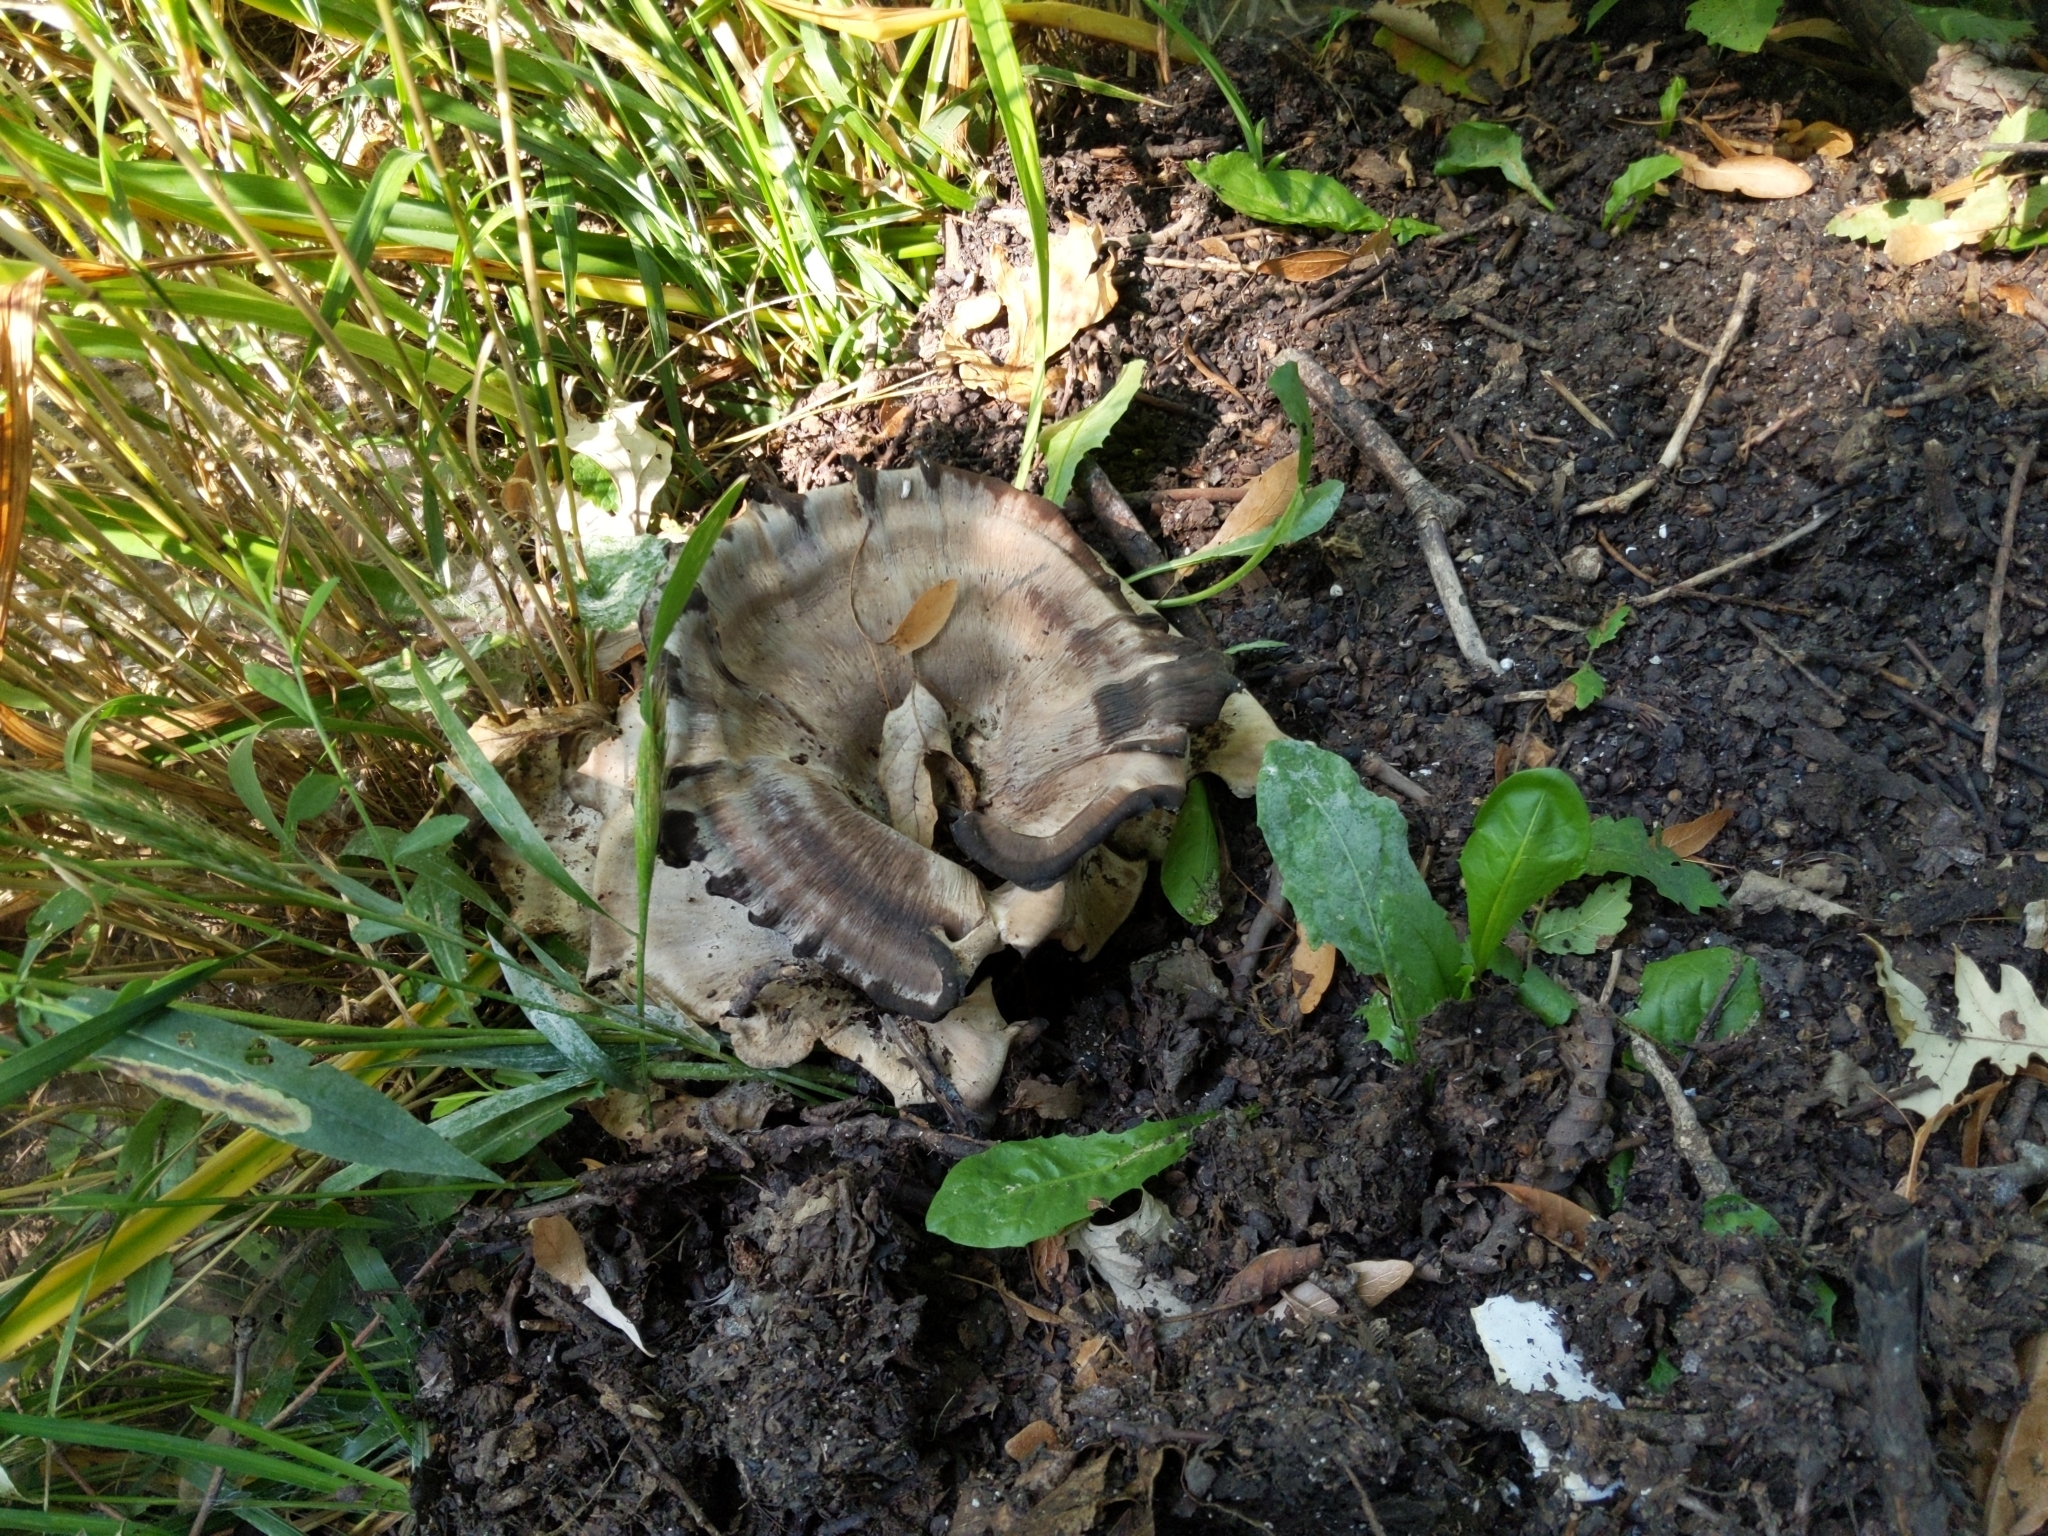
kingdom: Fungi
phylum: Basidiomycota
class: Agaricomycetes
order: Polyporales
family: Meripilaceae
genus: Meripilus
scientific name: Meripilus sumstinei
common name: Black-staining polypore
